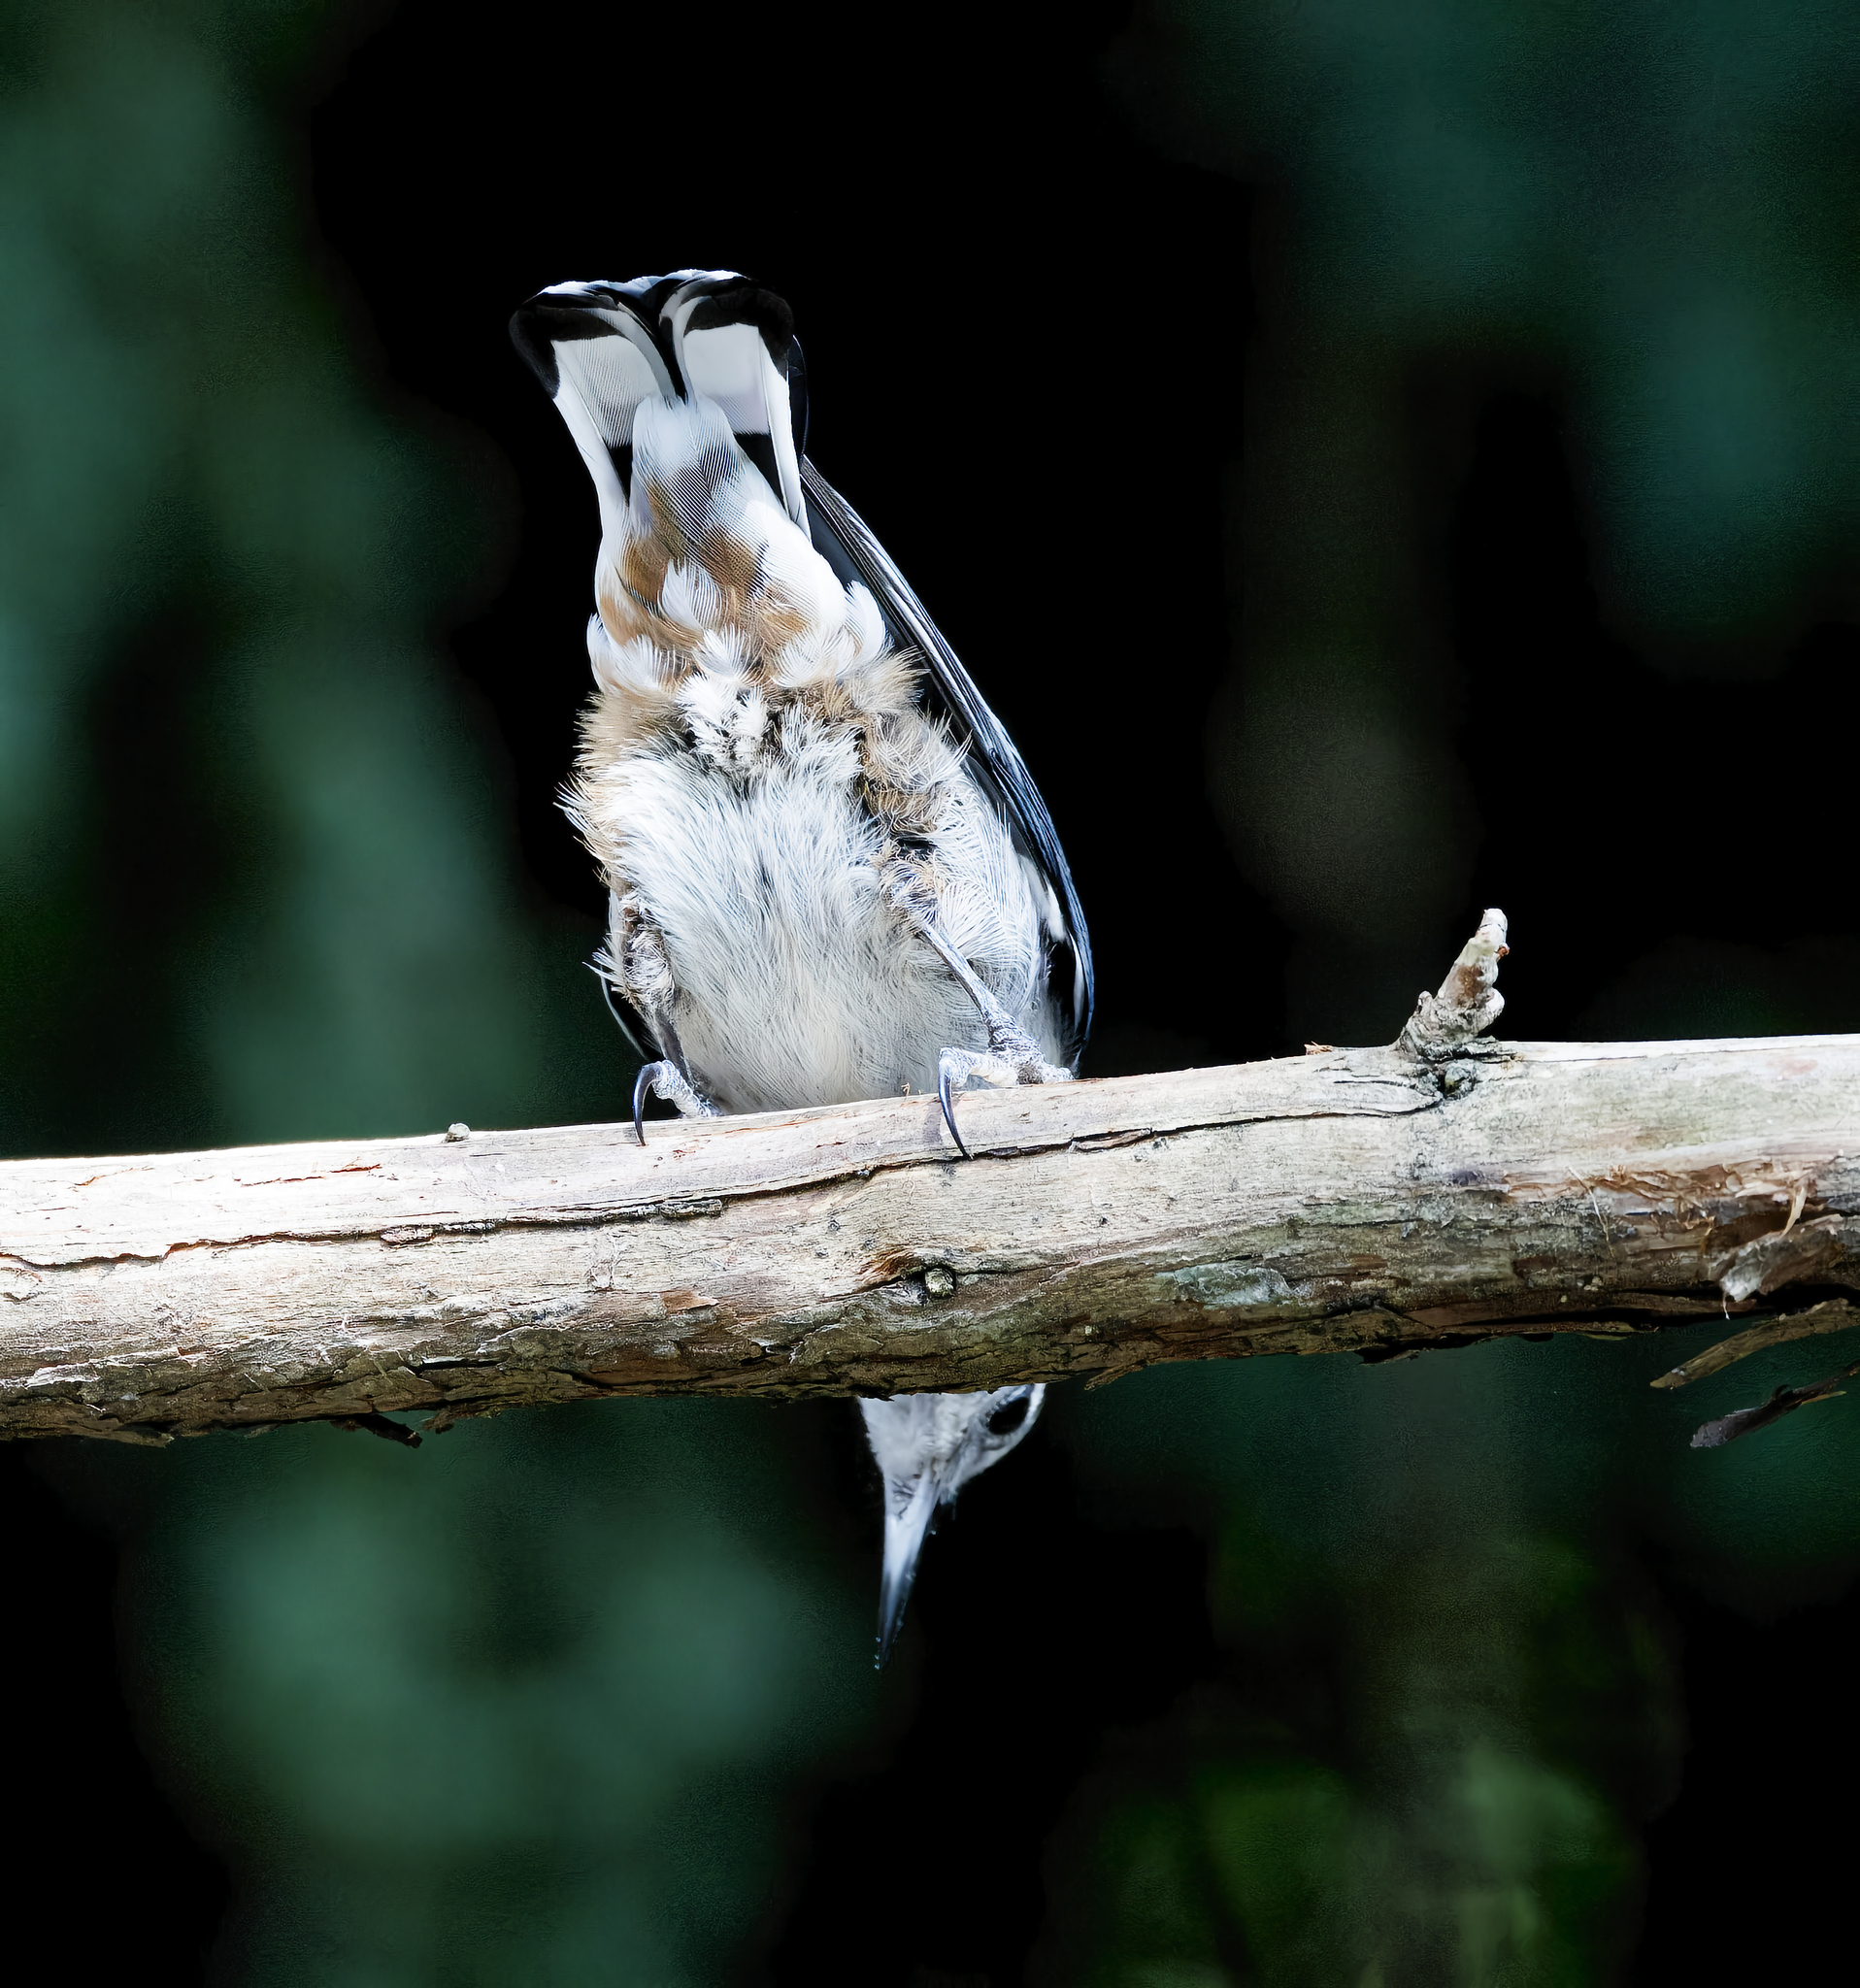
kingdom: Animalia
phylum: Chordata
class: Aves
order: Passeriformes
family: Sittidae
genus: Sitta
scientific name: Sitta carolinensis
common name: White-breasted nuthatch
